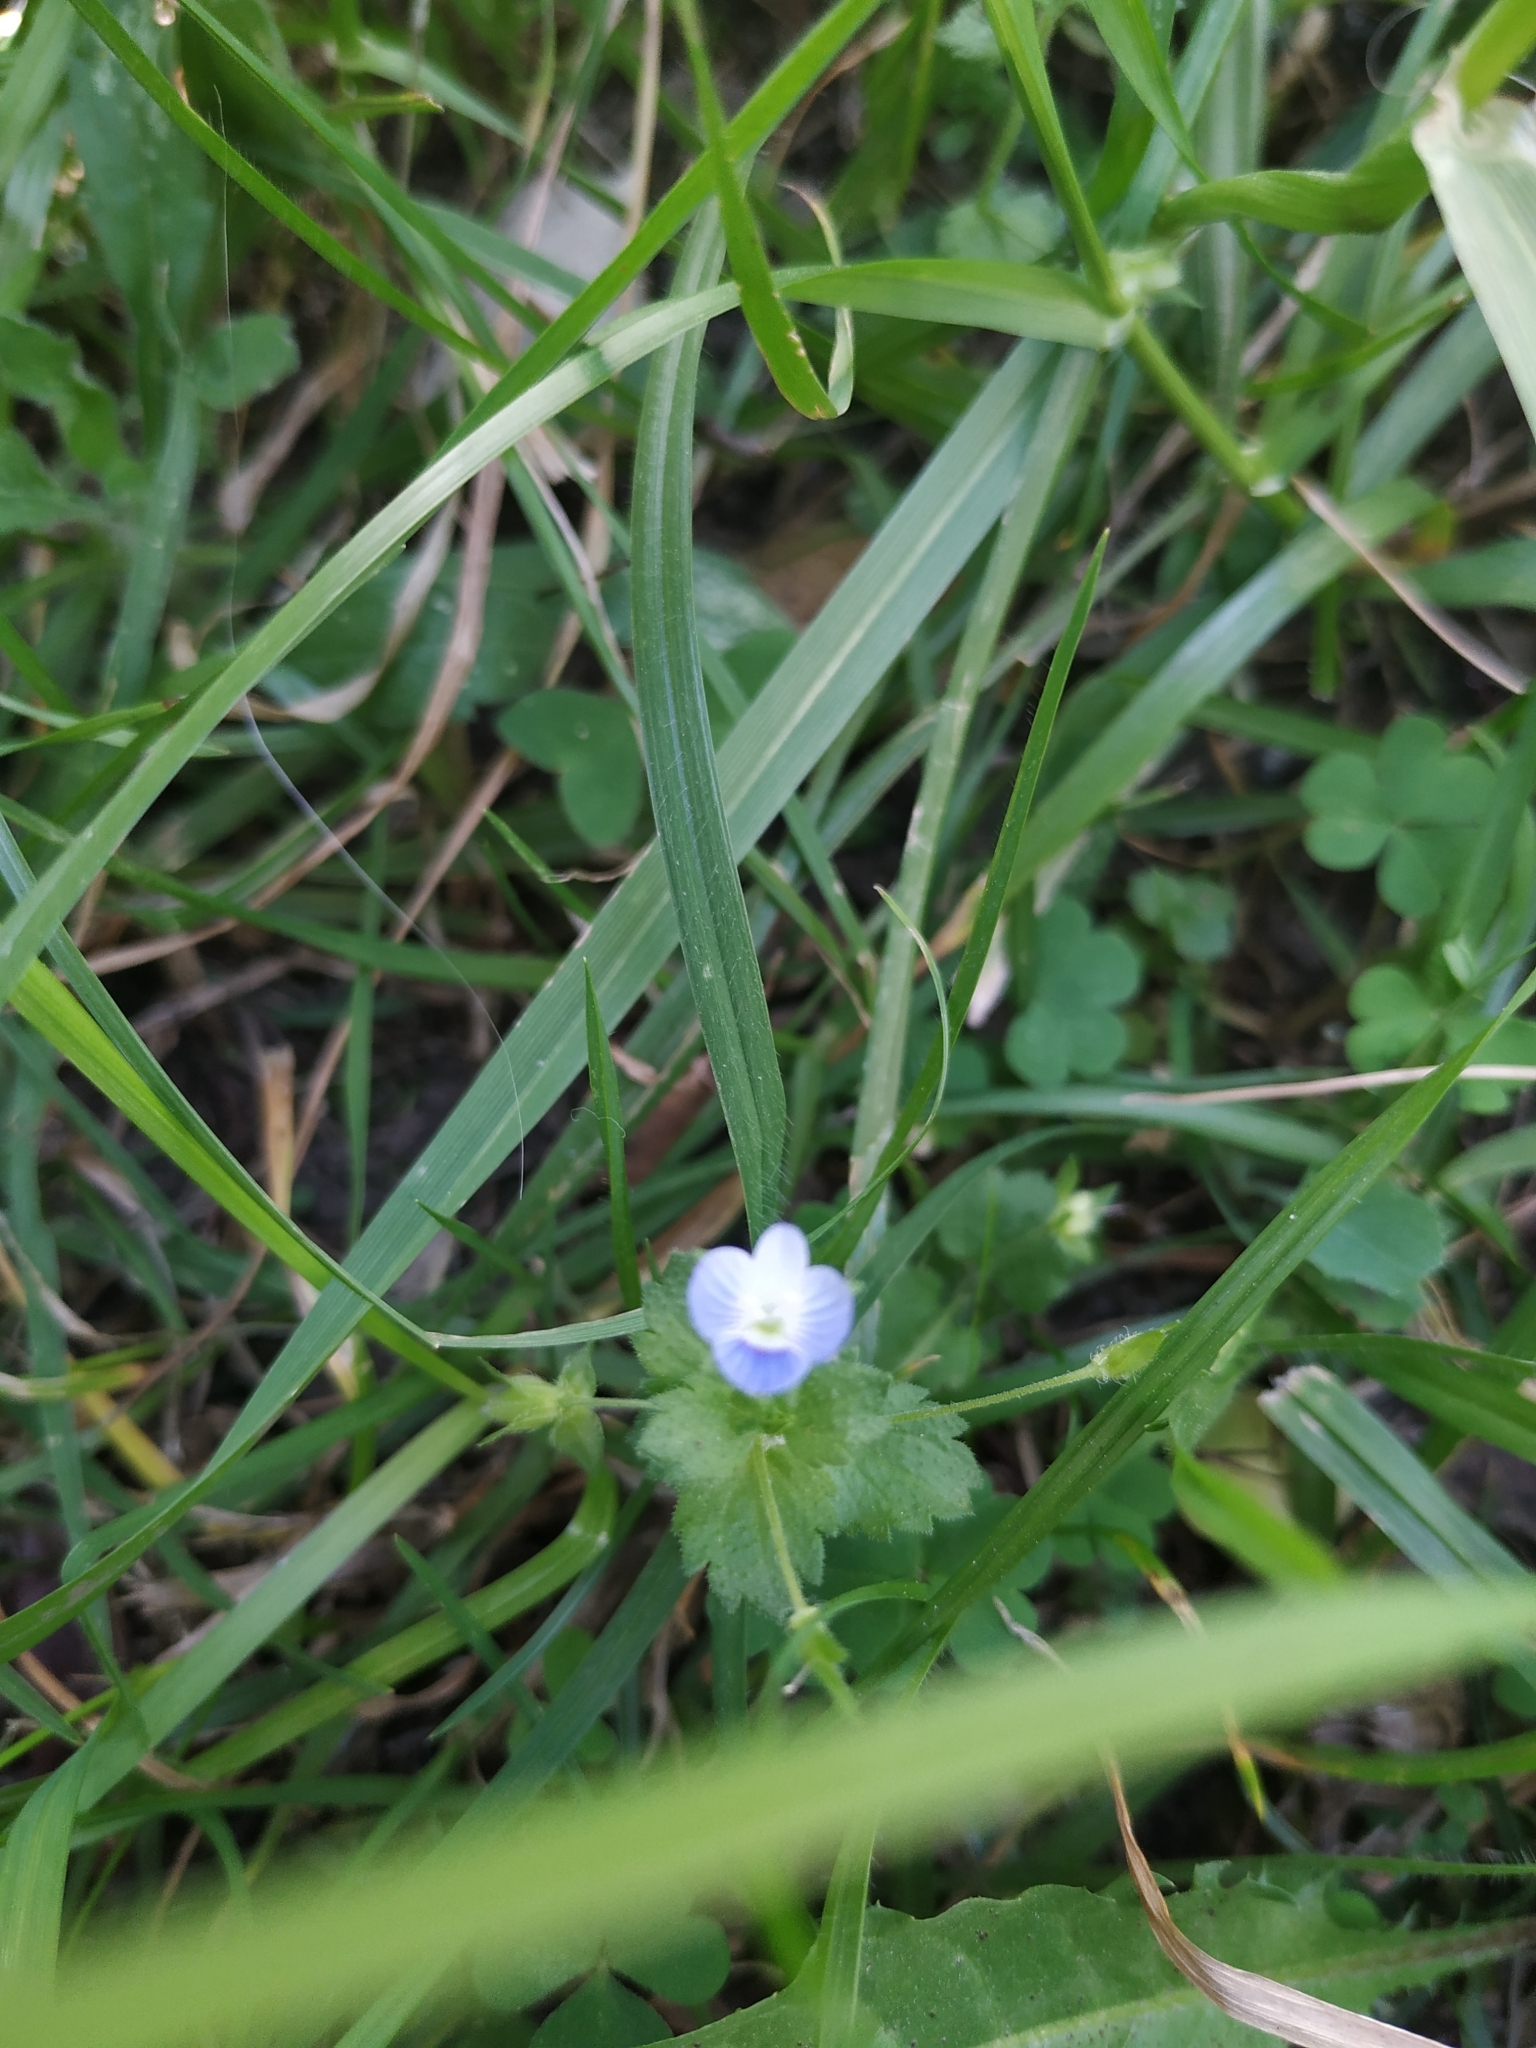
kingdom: Plantae
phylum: Tracheophyta
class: Magnoliopsida
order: Lamiales
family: Plantaginaceae
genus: Veronica
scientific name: Veronica persica
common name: Common field-speedwell
